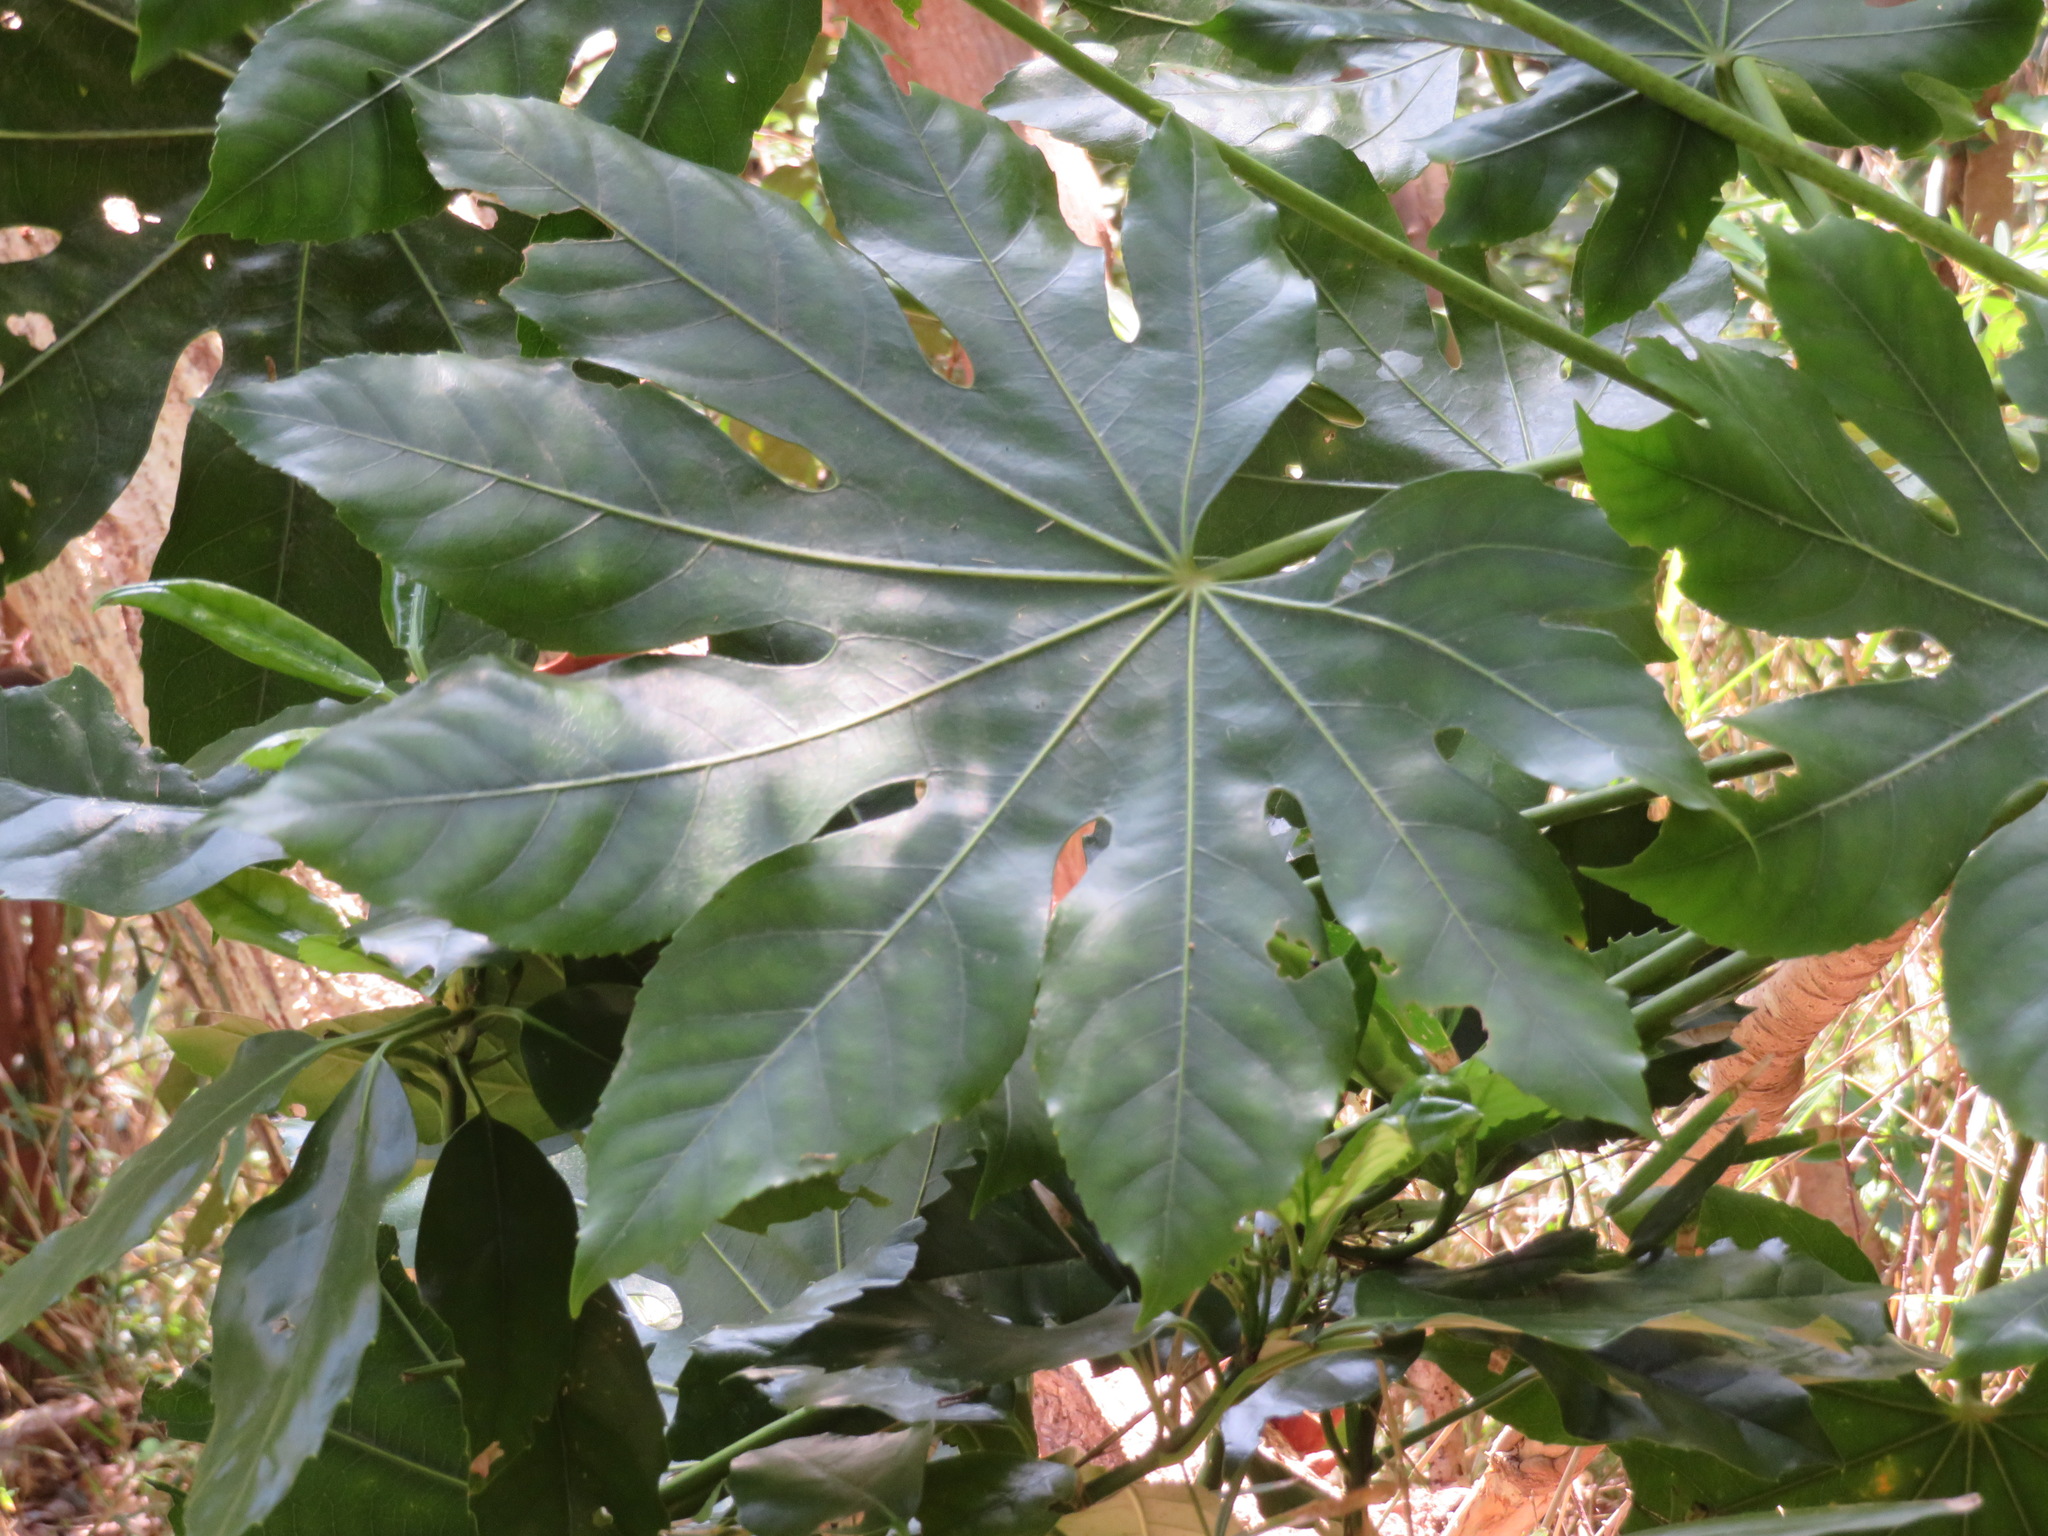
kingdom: Plantae
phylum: Tracheophyta
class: Magnoliopsida
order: Apiales
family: Araliaceae
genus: Fatsia
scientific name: Fatsia japonica
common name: Fatsia
